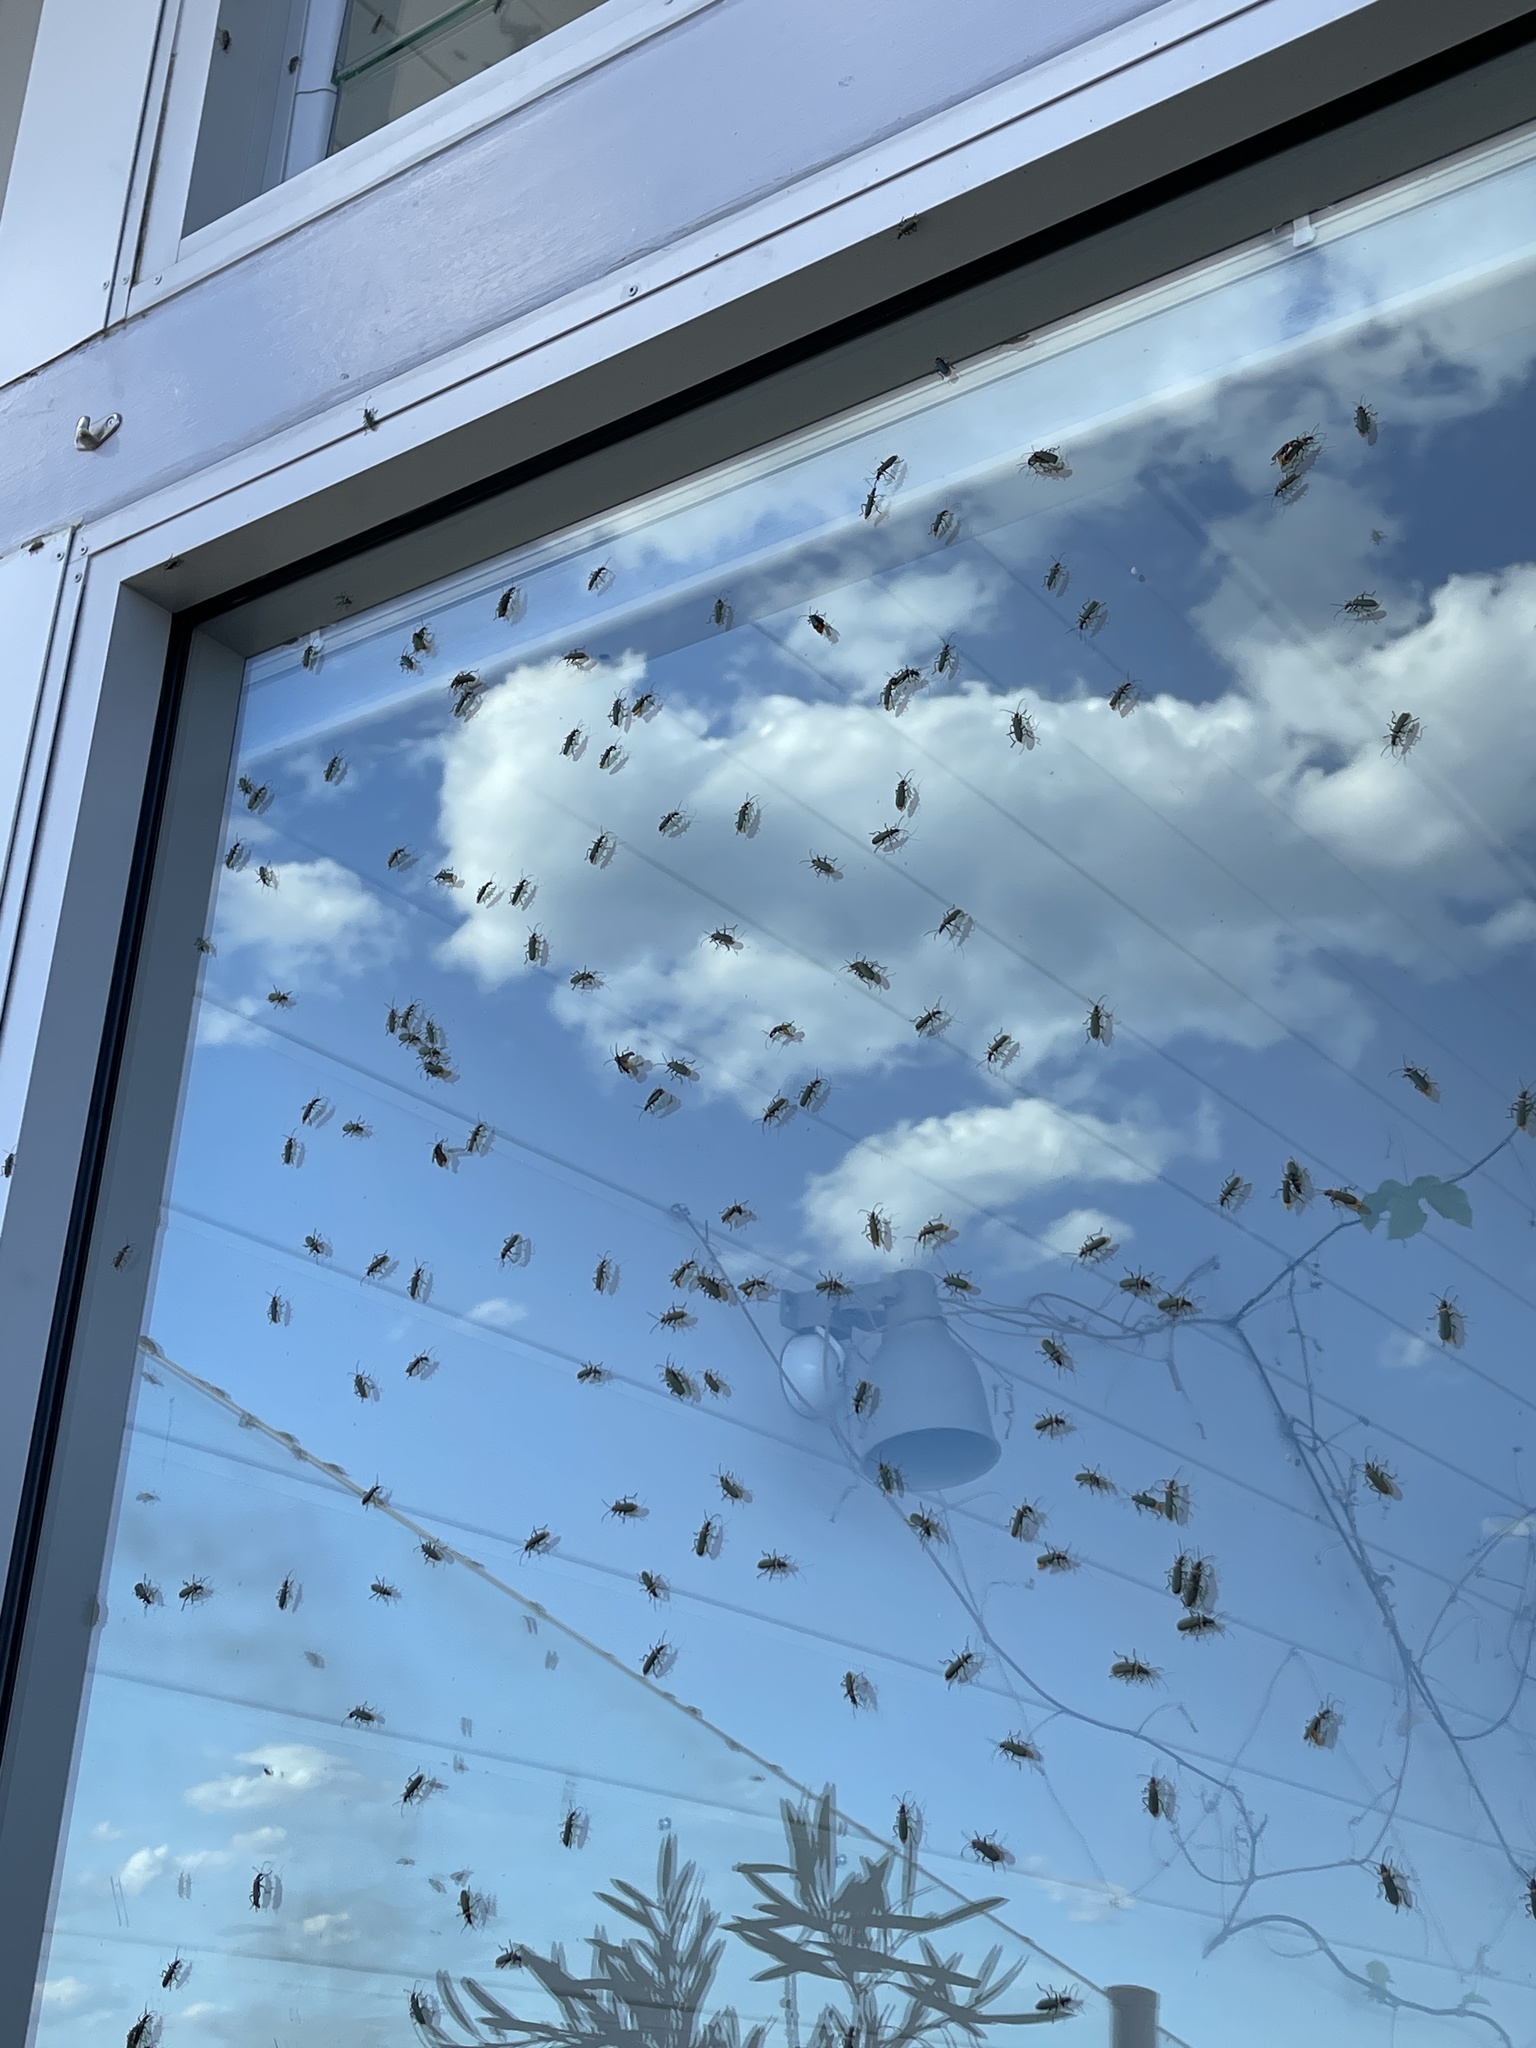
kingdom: Animalia
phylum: Arthropoda
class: Insecta
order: Coleoptera
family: Cantharidae
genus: Chauliognathus
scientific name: Chauliognathus
